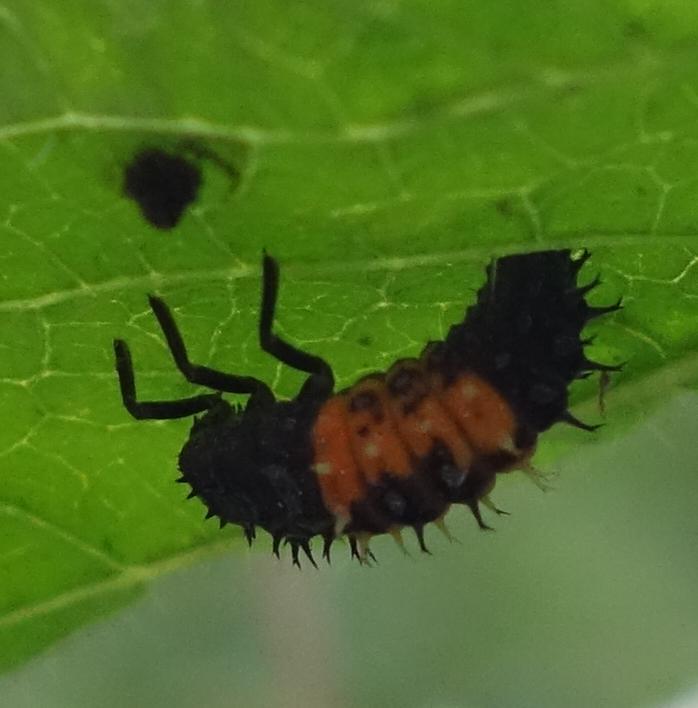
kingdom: Animalia
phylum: Arthropoda
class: Insecta
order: Coleoptera
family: Coccinellidae
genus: Harmonia
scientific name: Harmonia dimidiata
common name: Ladybird beetle
